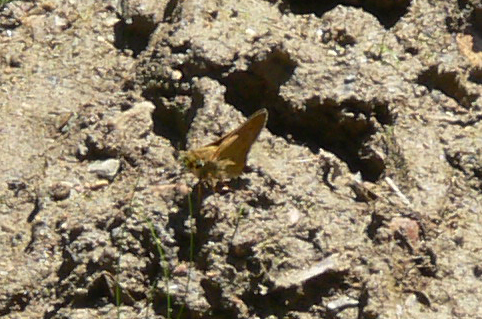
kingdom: Animalia
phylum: Arthropoda
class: Insecta
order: Lepidoptera
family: Hesperiidae
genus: Atalopedes
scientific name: Atalopedes
